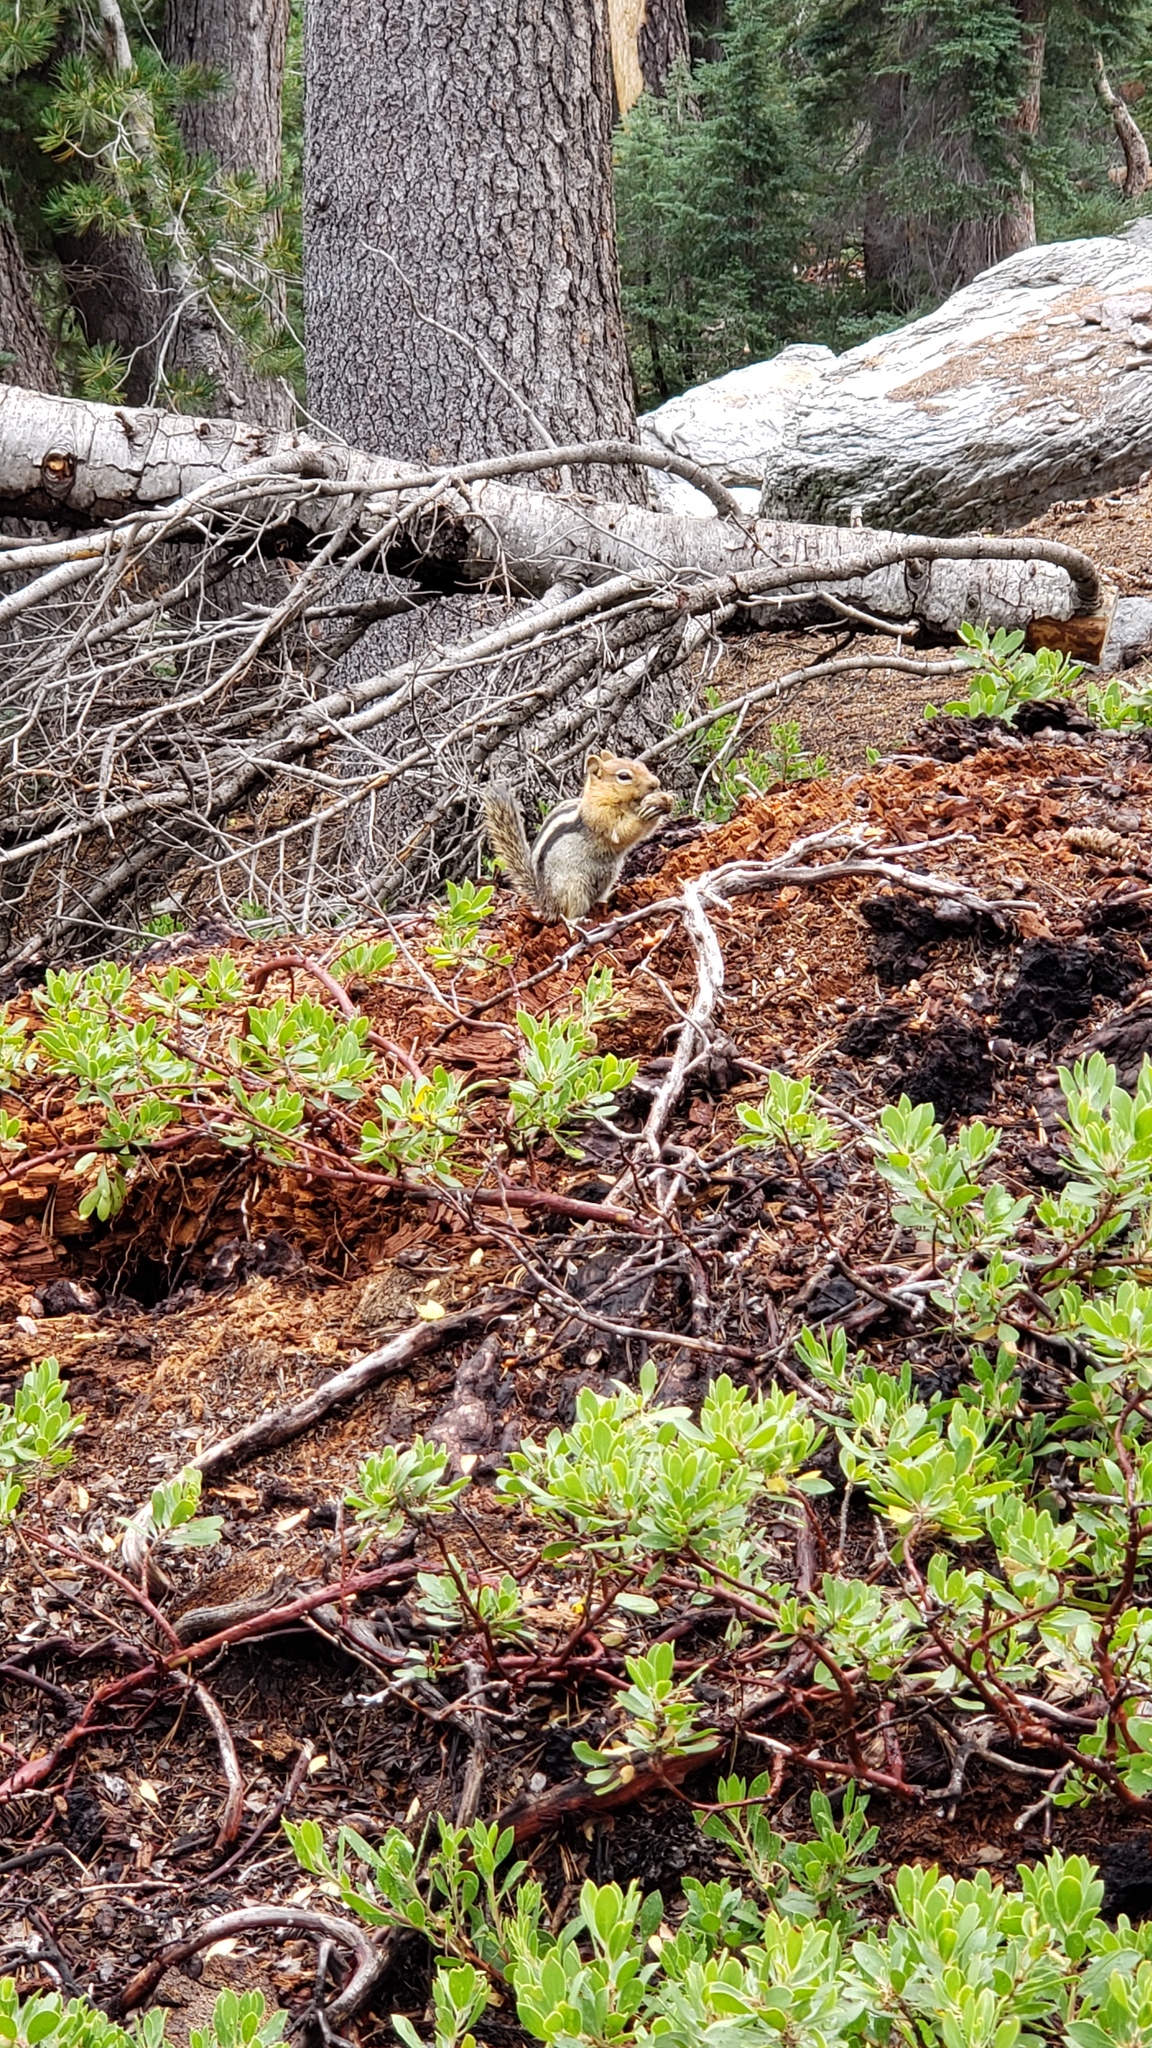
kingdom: Animalia
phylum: Chordata
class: Mammalia
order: Rodentia
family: Sciuridae
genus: Callospermophilus
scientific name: Callospermophilus lateralis
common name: Golden-mantled ground squirrel
